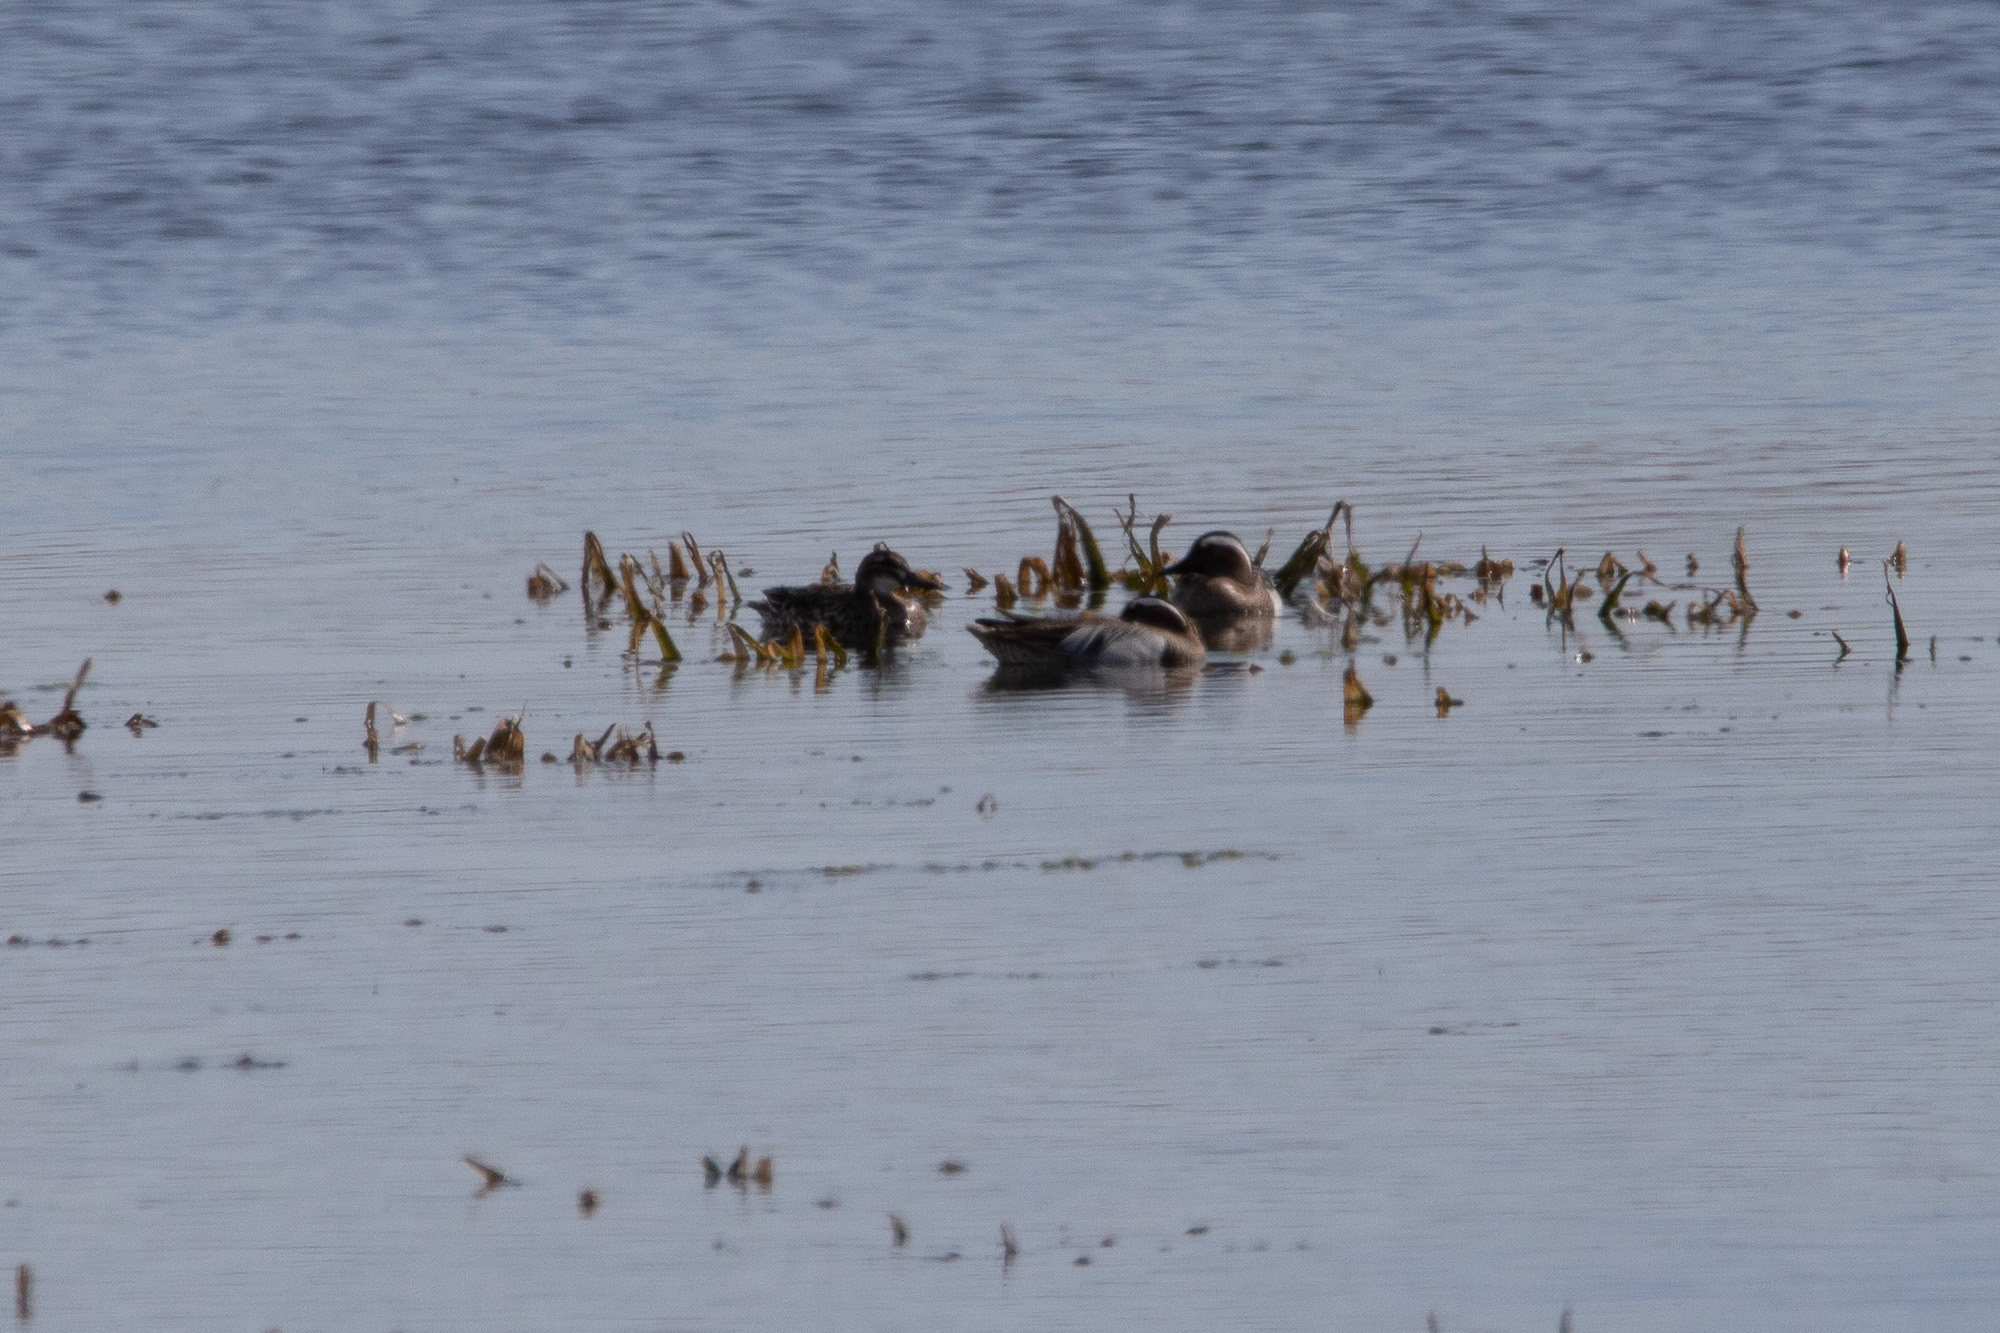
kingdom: Animalia
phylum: Chordata
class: Aves
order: Anseriformes
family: Anatidae
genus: Spatula
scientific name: Spatula querquedula
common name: Garganey
